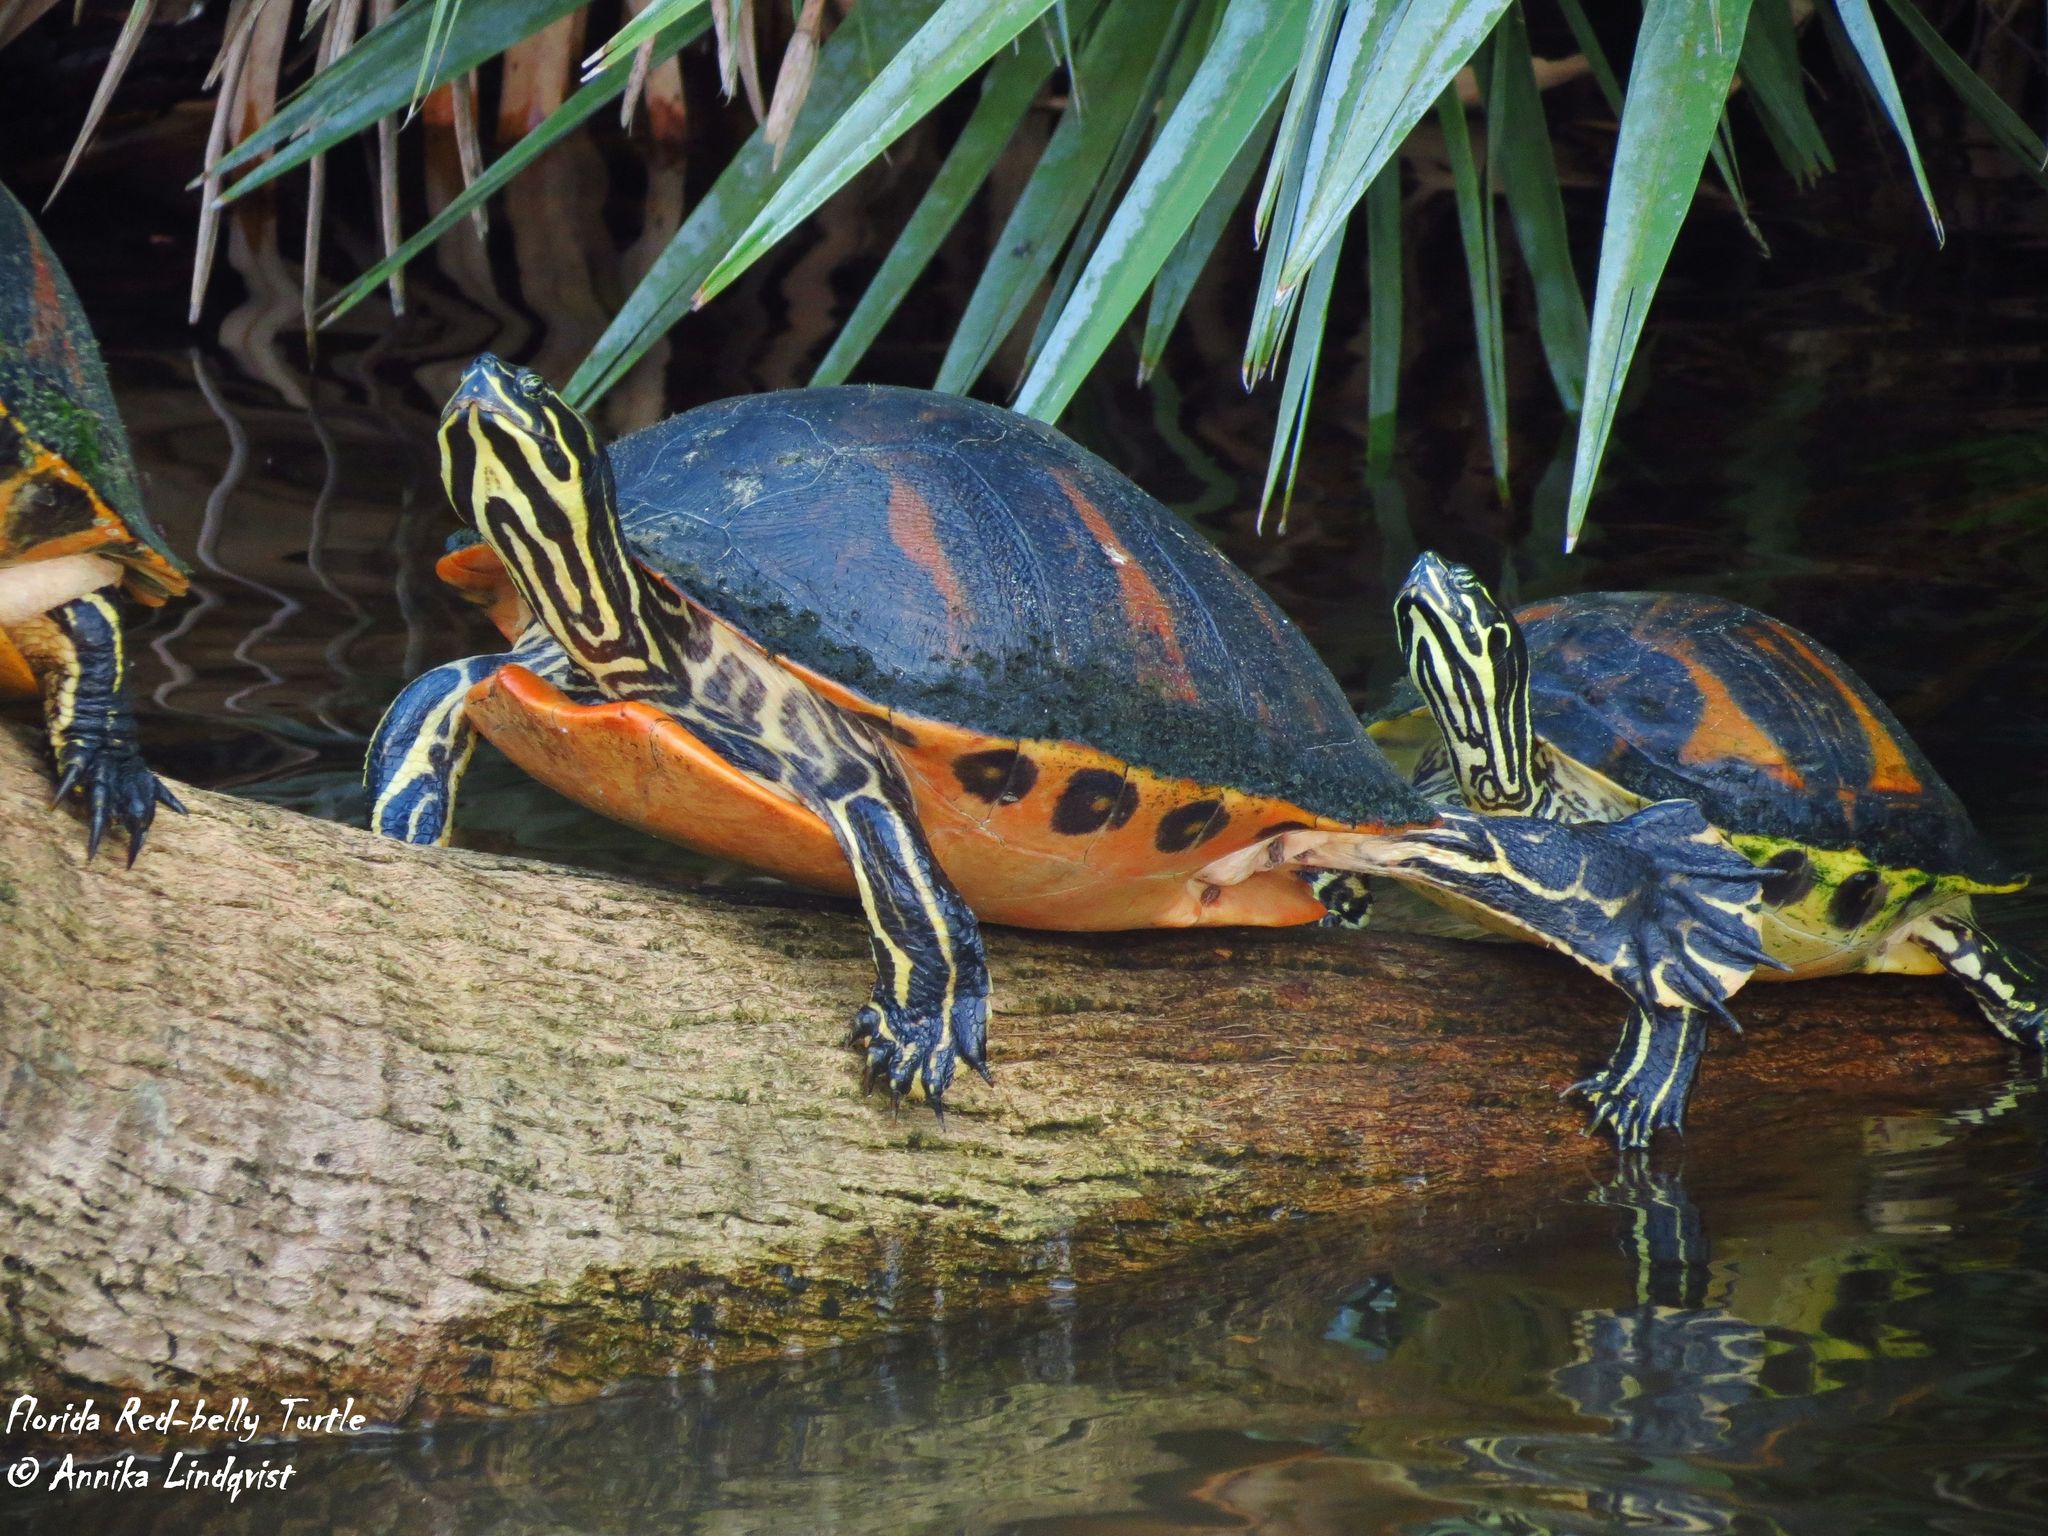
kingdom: Animalia
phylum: Chordata
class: Testudines
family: Emydidae
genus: Pseudemys
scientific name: Pseudemys nelsoni
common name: Florida red-bellied turtle
